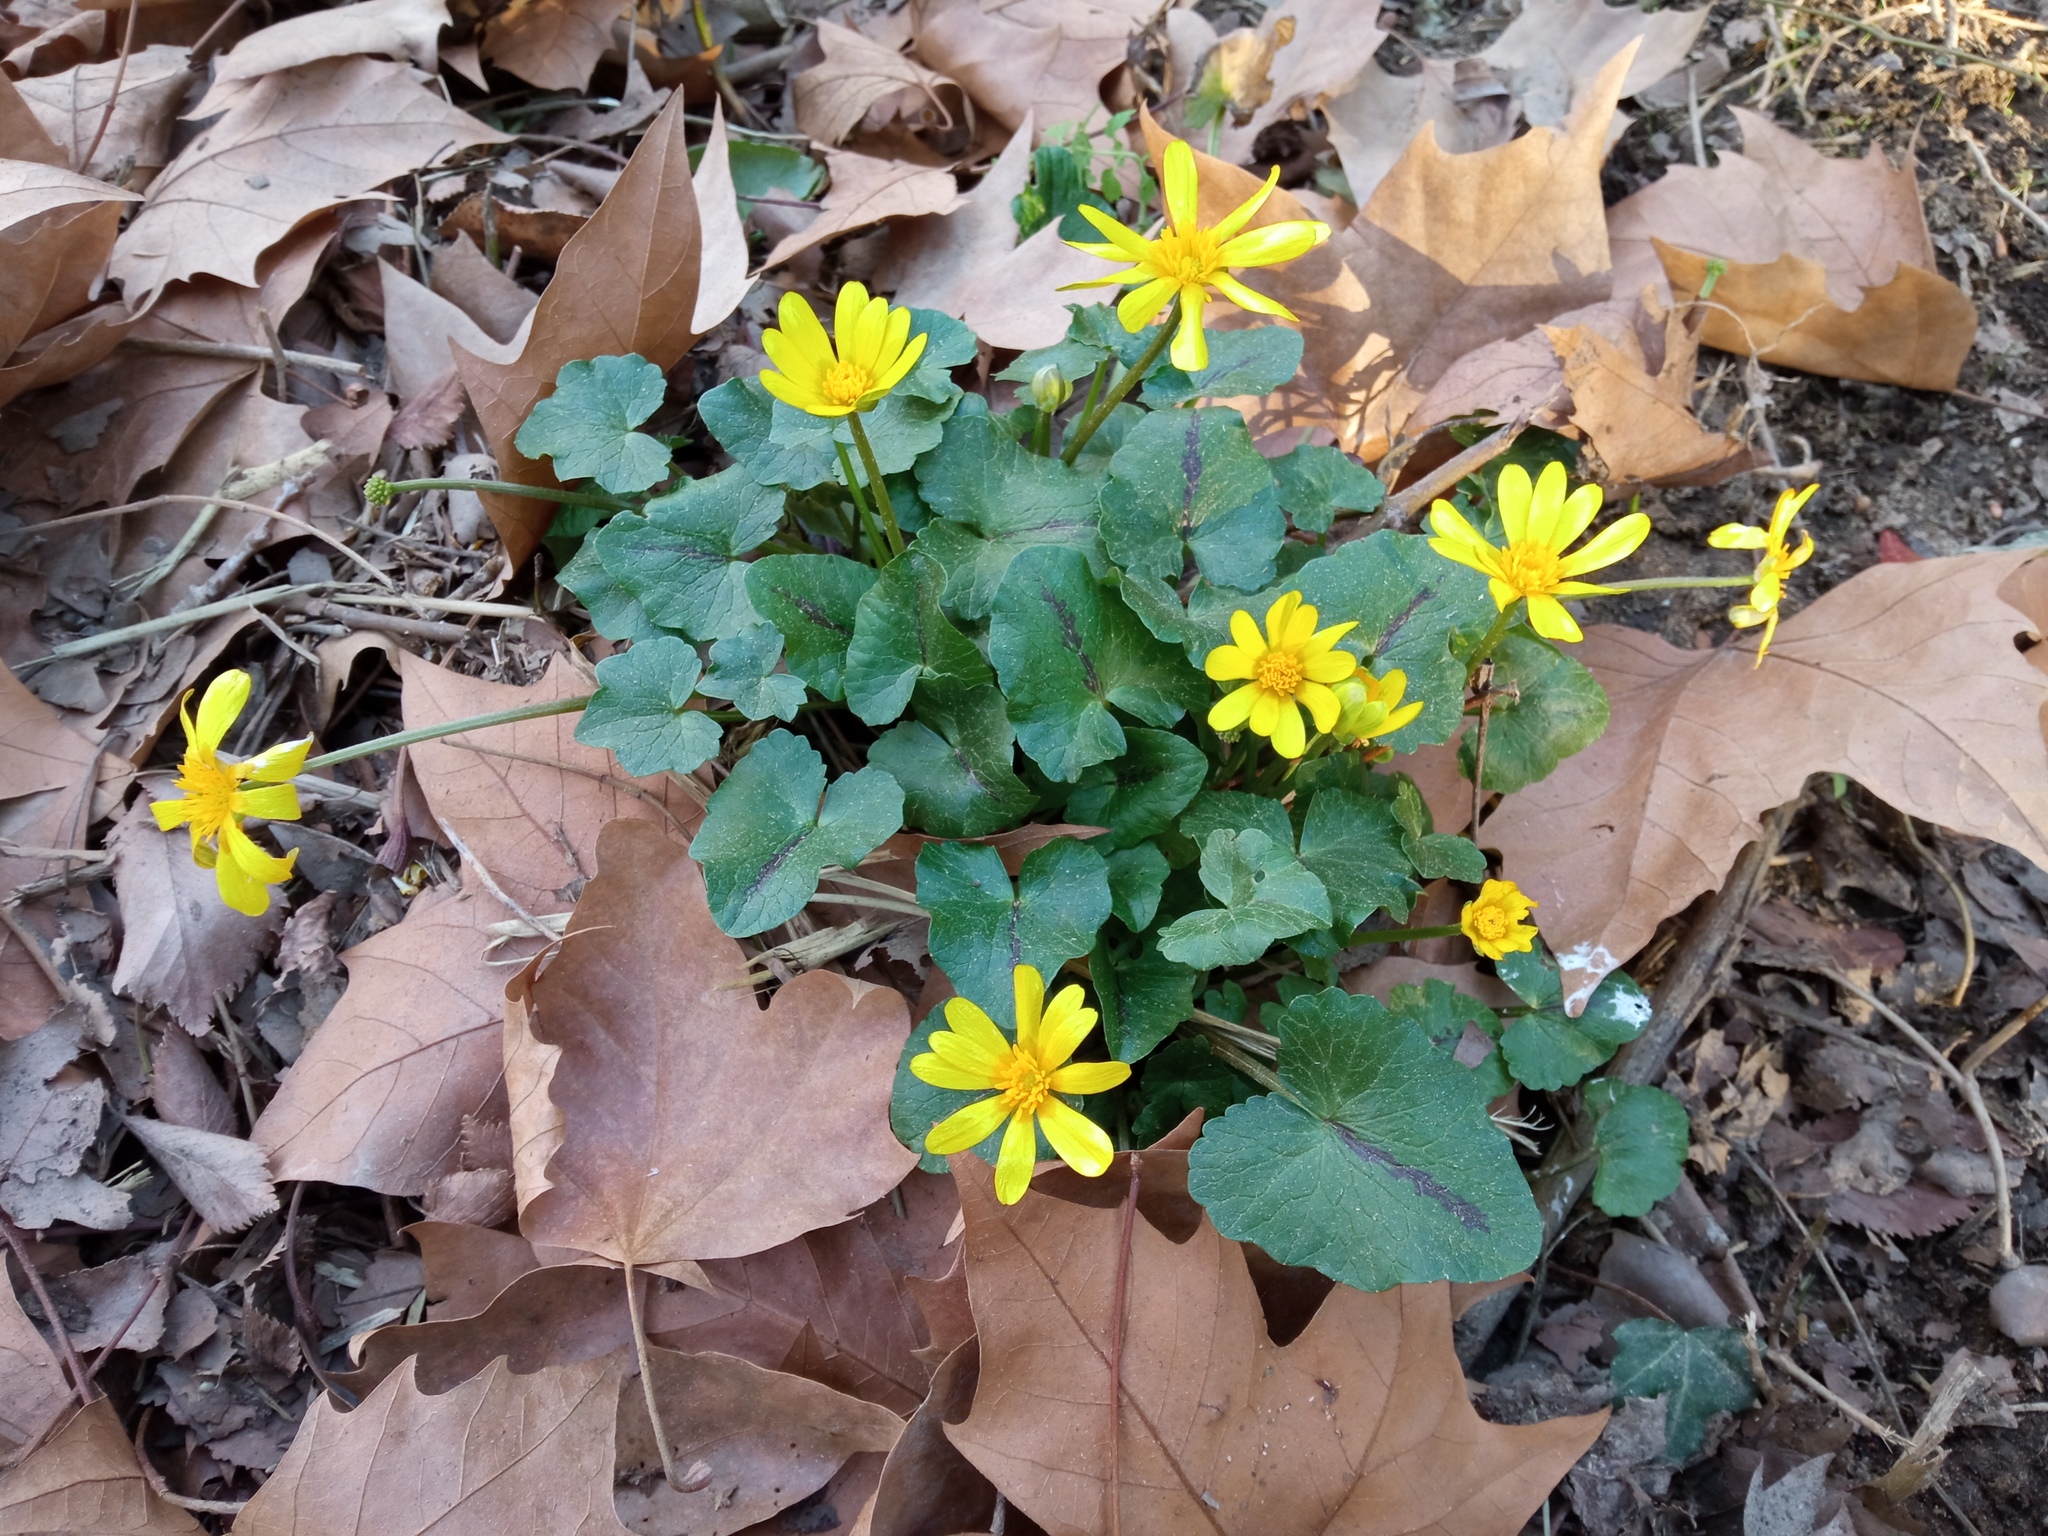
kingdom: Plantae
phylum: Tracheophyta
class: Magnoliopsida
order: Ranunculales
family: Ranunculaceae
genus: Ficaria
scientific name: Ficaria verna
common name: Lesser celandine
